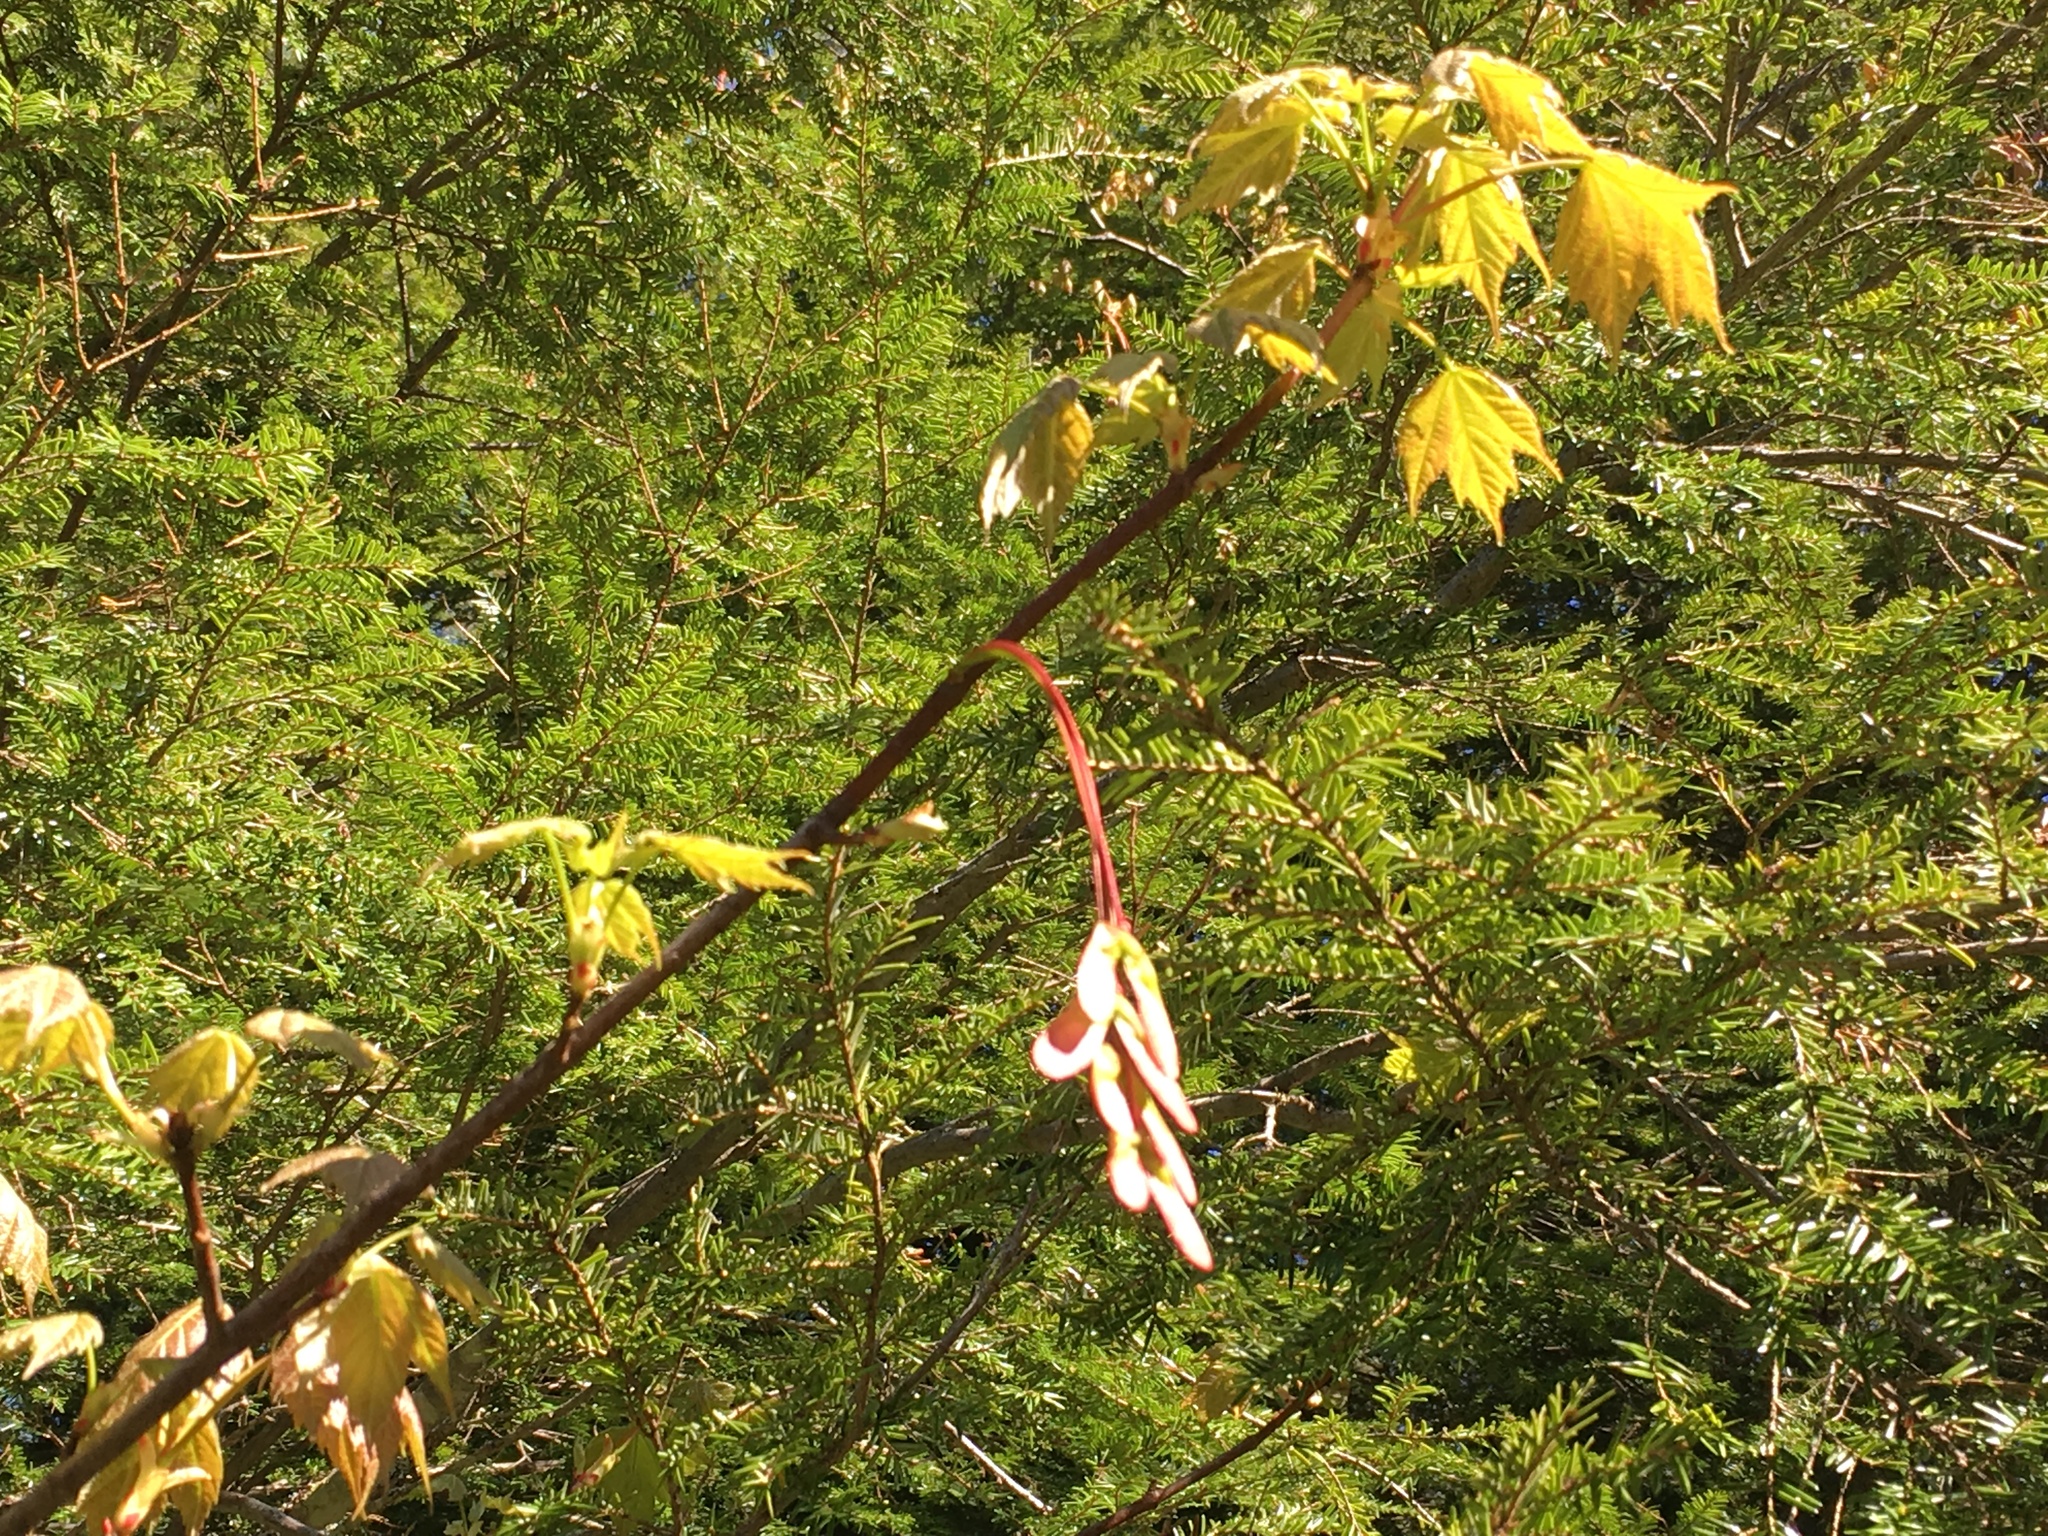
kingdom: Plantae
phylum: Tracheophyta
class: Magnoliopsida
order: Sapindales
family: Sapindaceae
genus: Acer
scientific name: Acer rubrum
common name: Red maple
